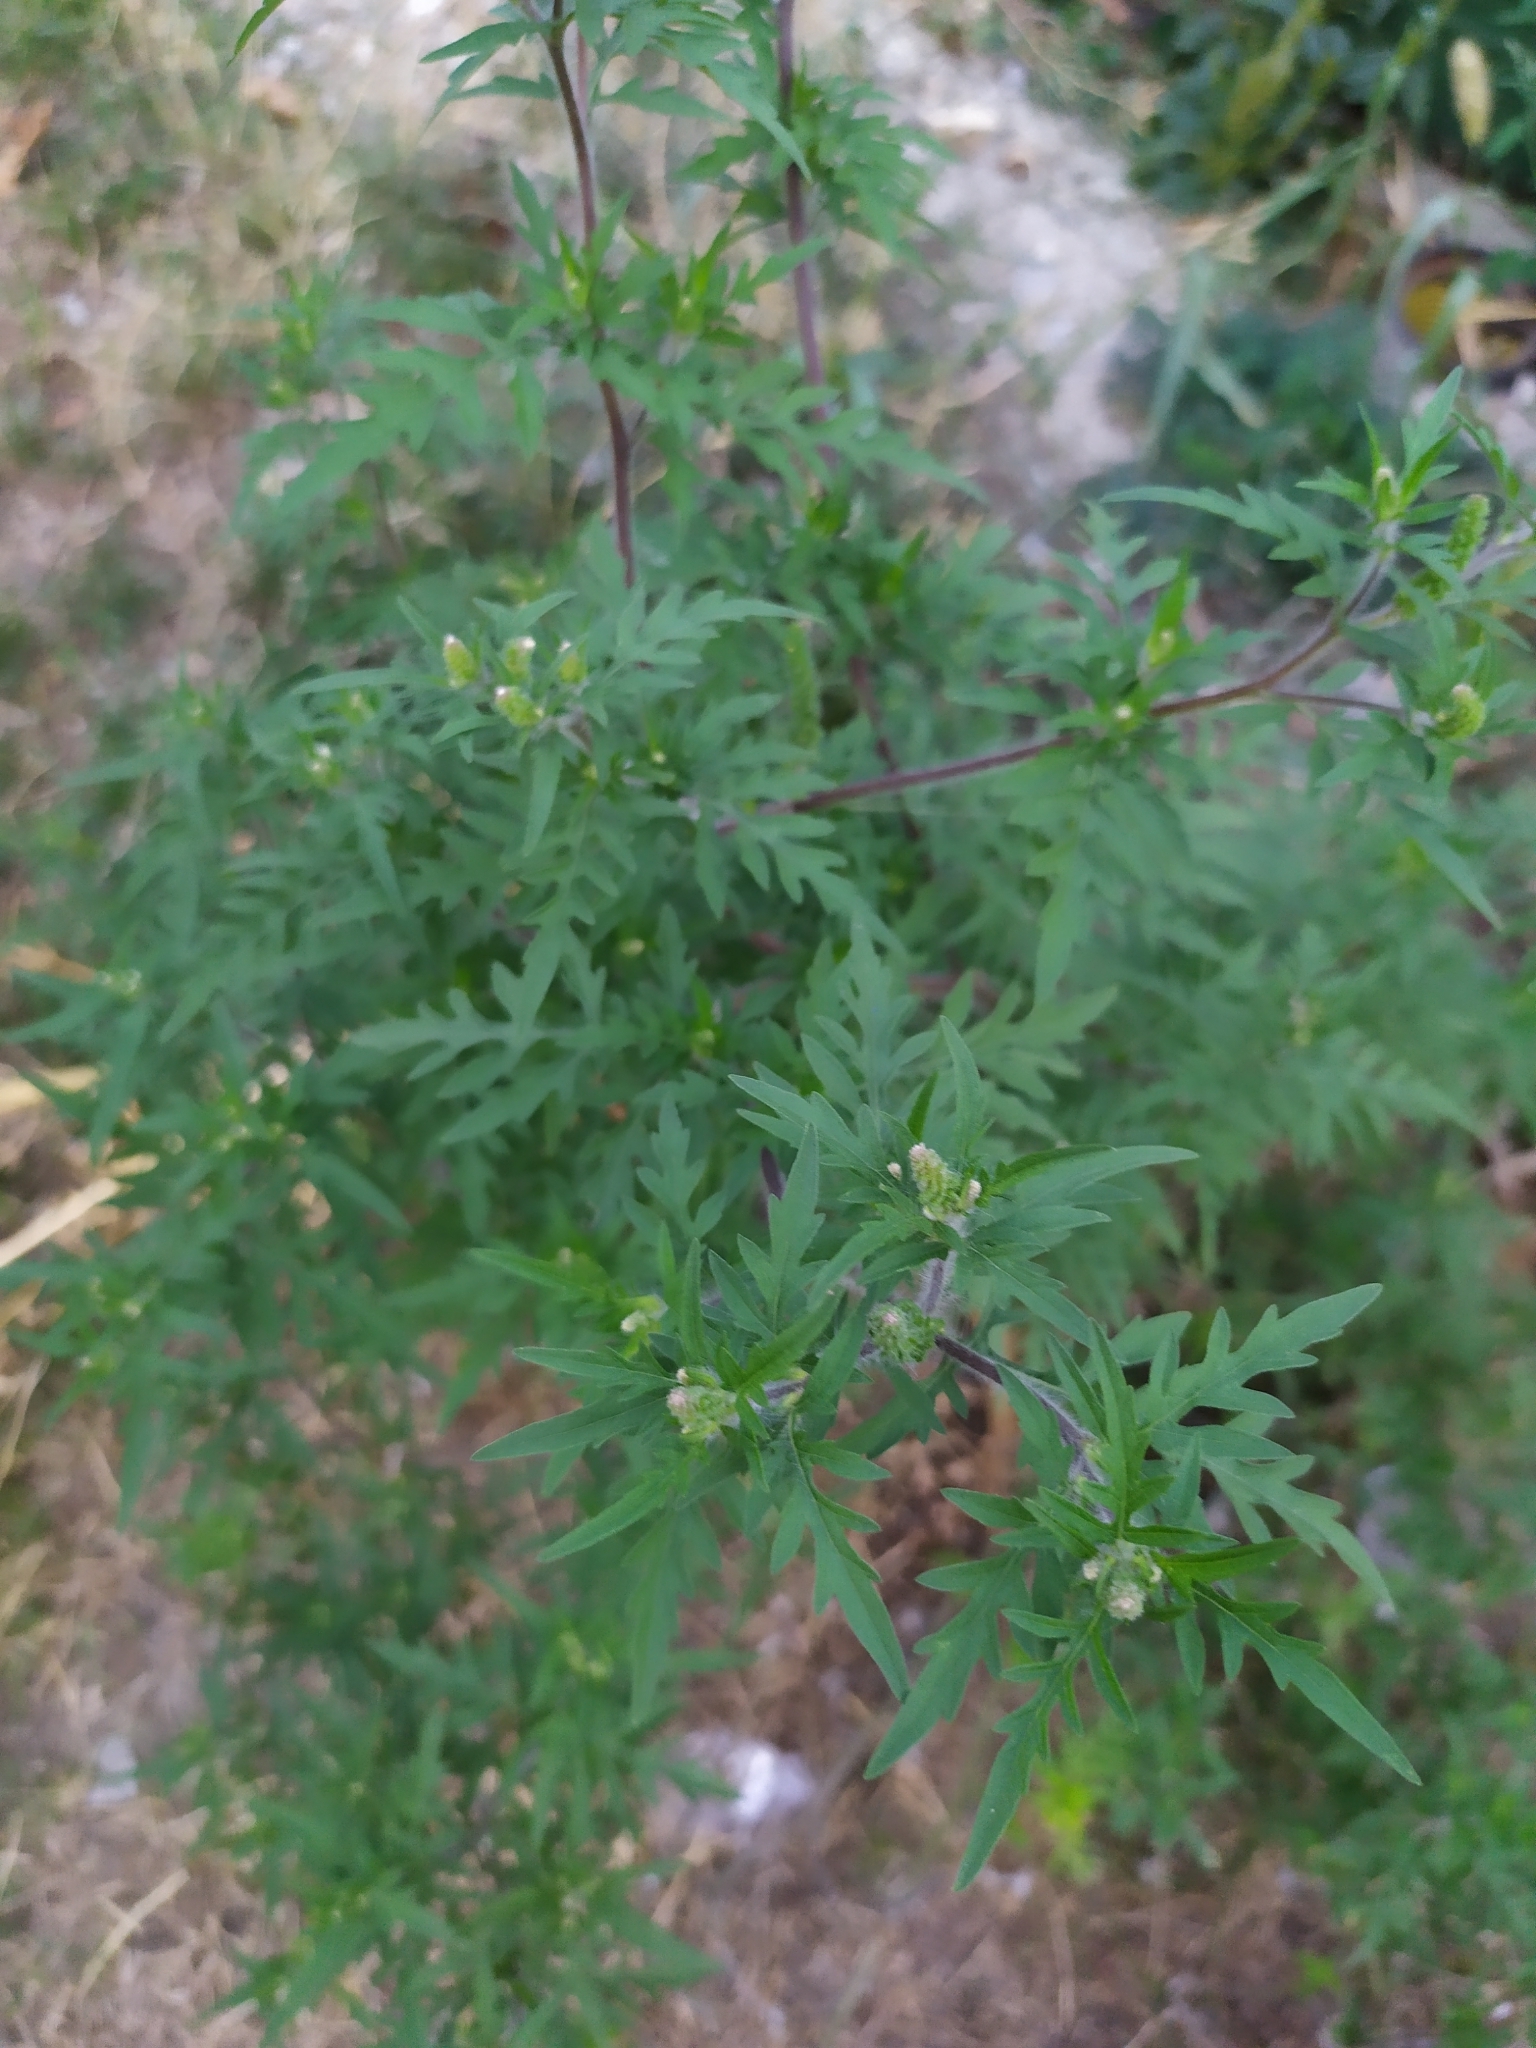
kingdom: Plantae
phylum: Tracheophyta
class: Magnoliopsida
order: Asterales
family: Asteraceae
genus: Ambrosia
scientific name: Ambrosia artemisiifolia
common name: Annual ragweed
